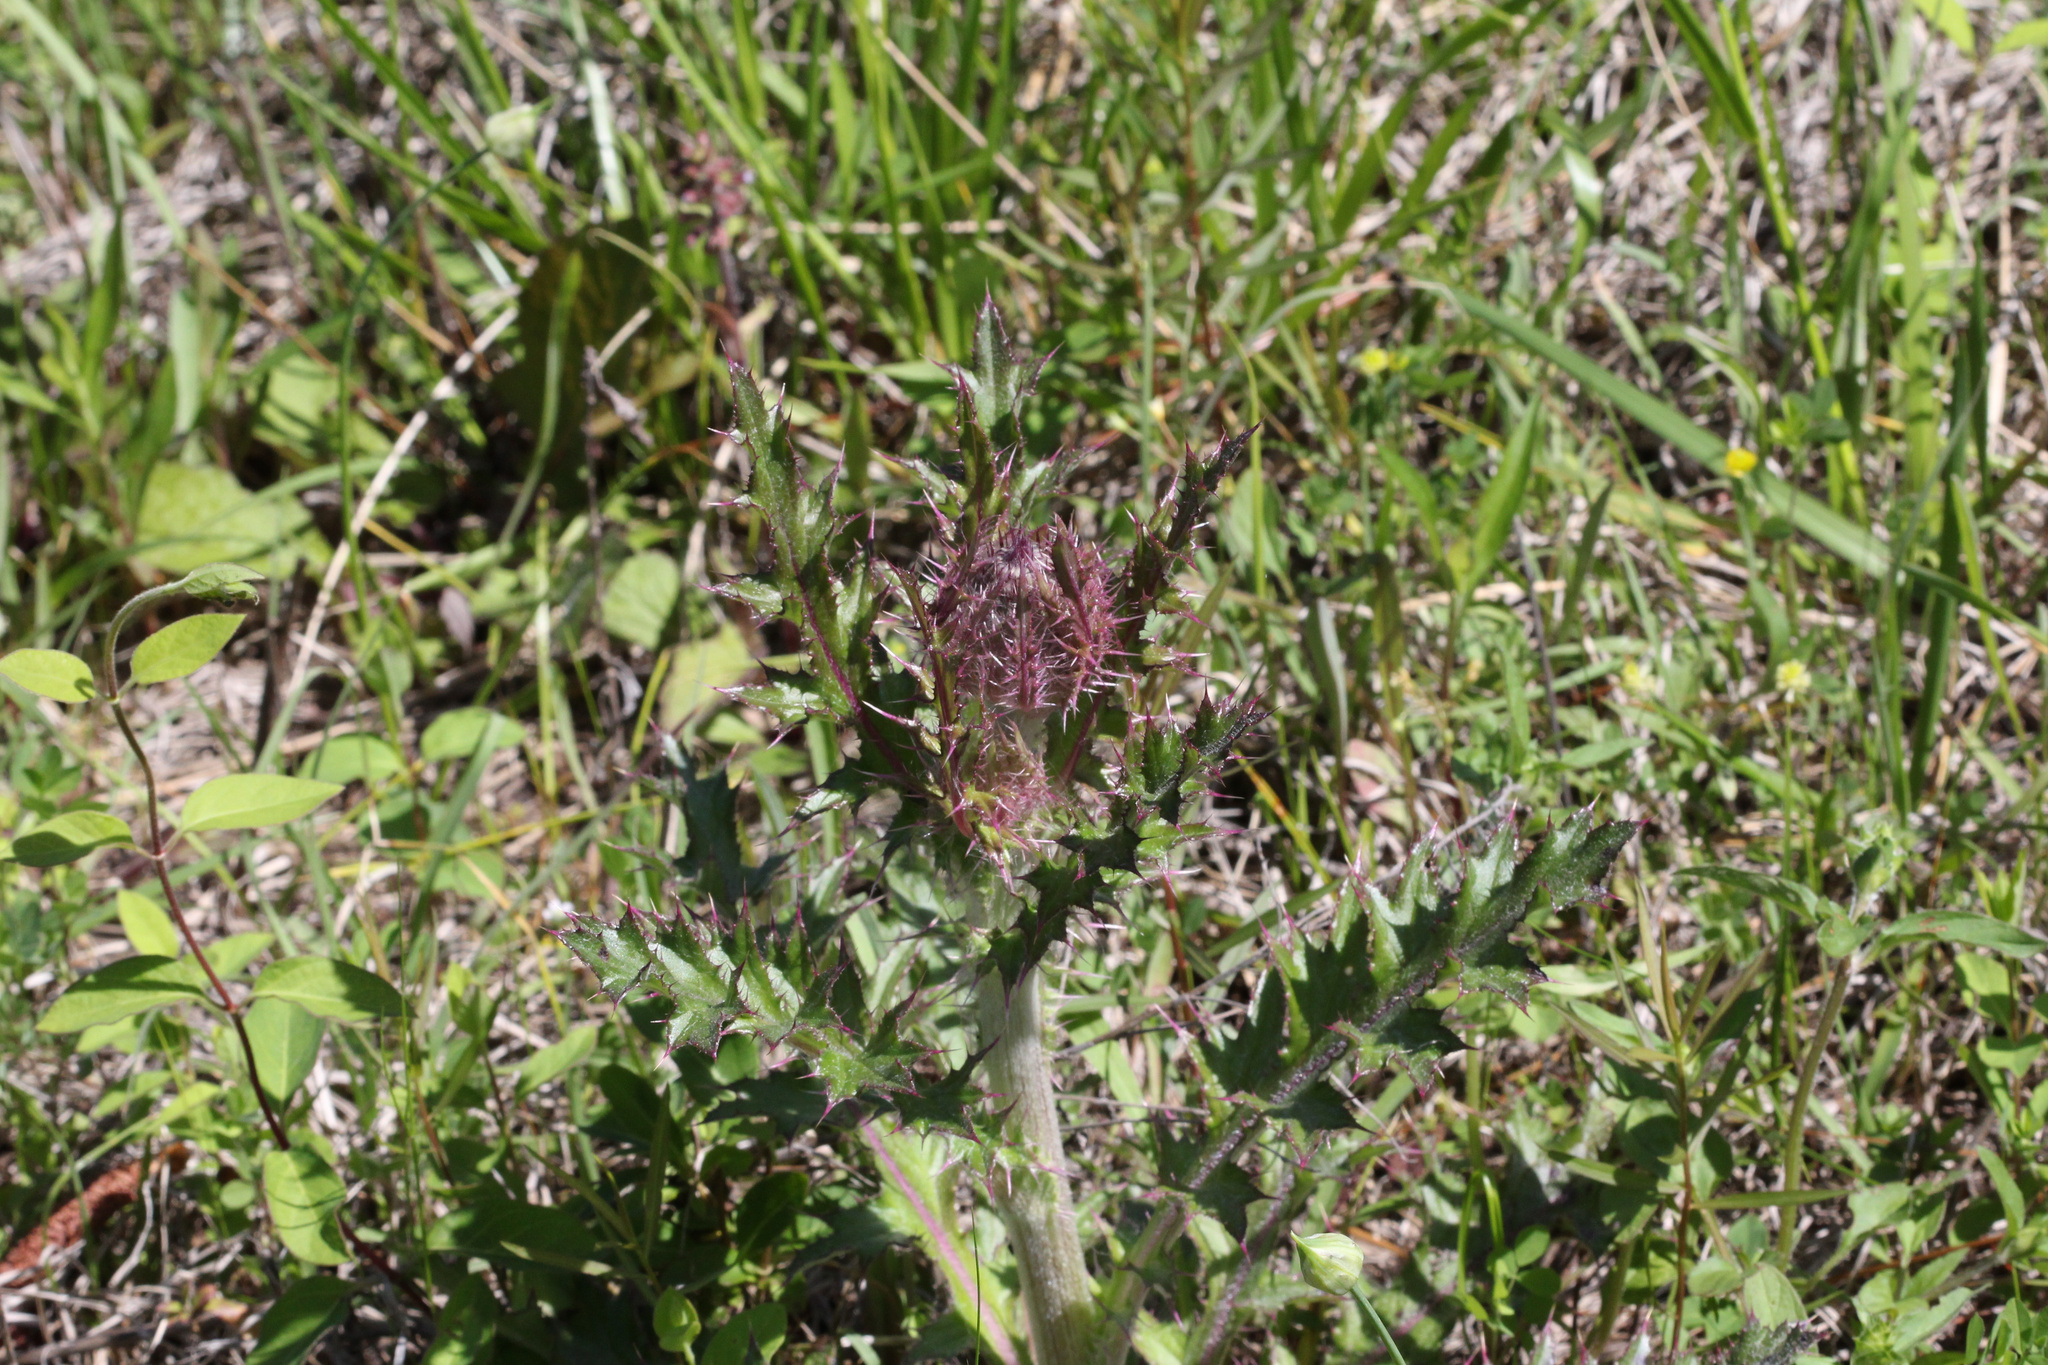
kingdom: Plantae
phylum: Tracheophyta
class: Magnoliopsida
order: Asterales
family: Asteraceae
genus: Cirsium
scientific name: Cirsium horridulum
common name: Bristly thistle
